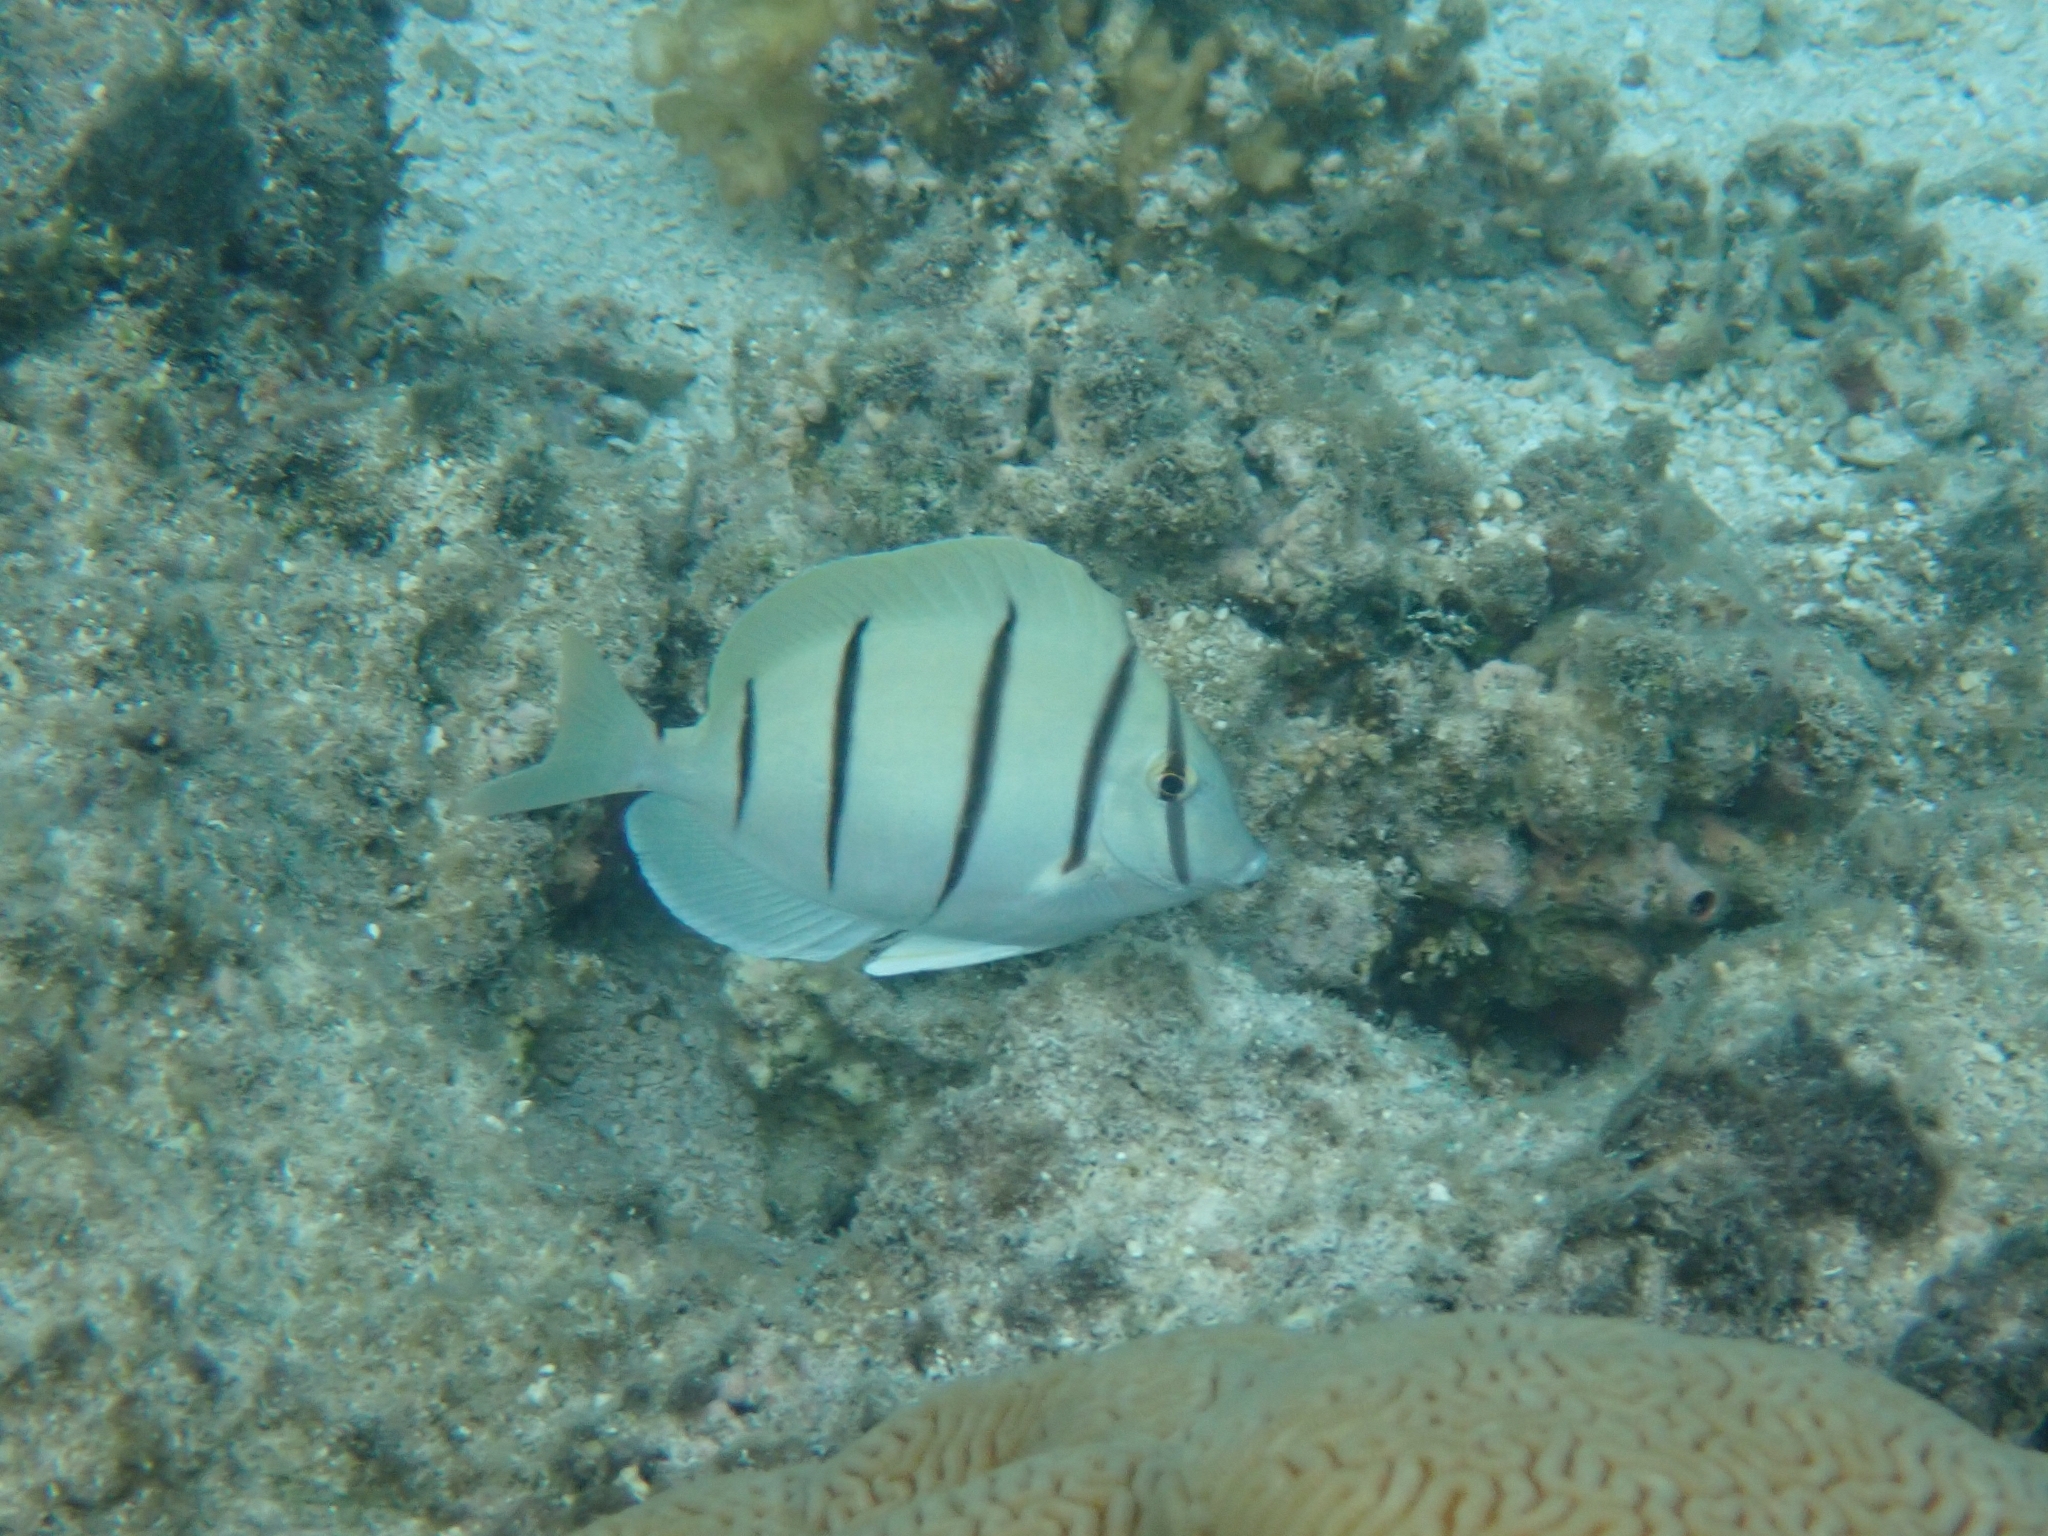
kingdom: Animalia
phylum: Chordata
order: Perciformes
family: Acanthuridae
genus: Acanthurus
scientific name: Acanthurus triostegus
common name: Convict surgeonfish
